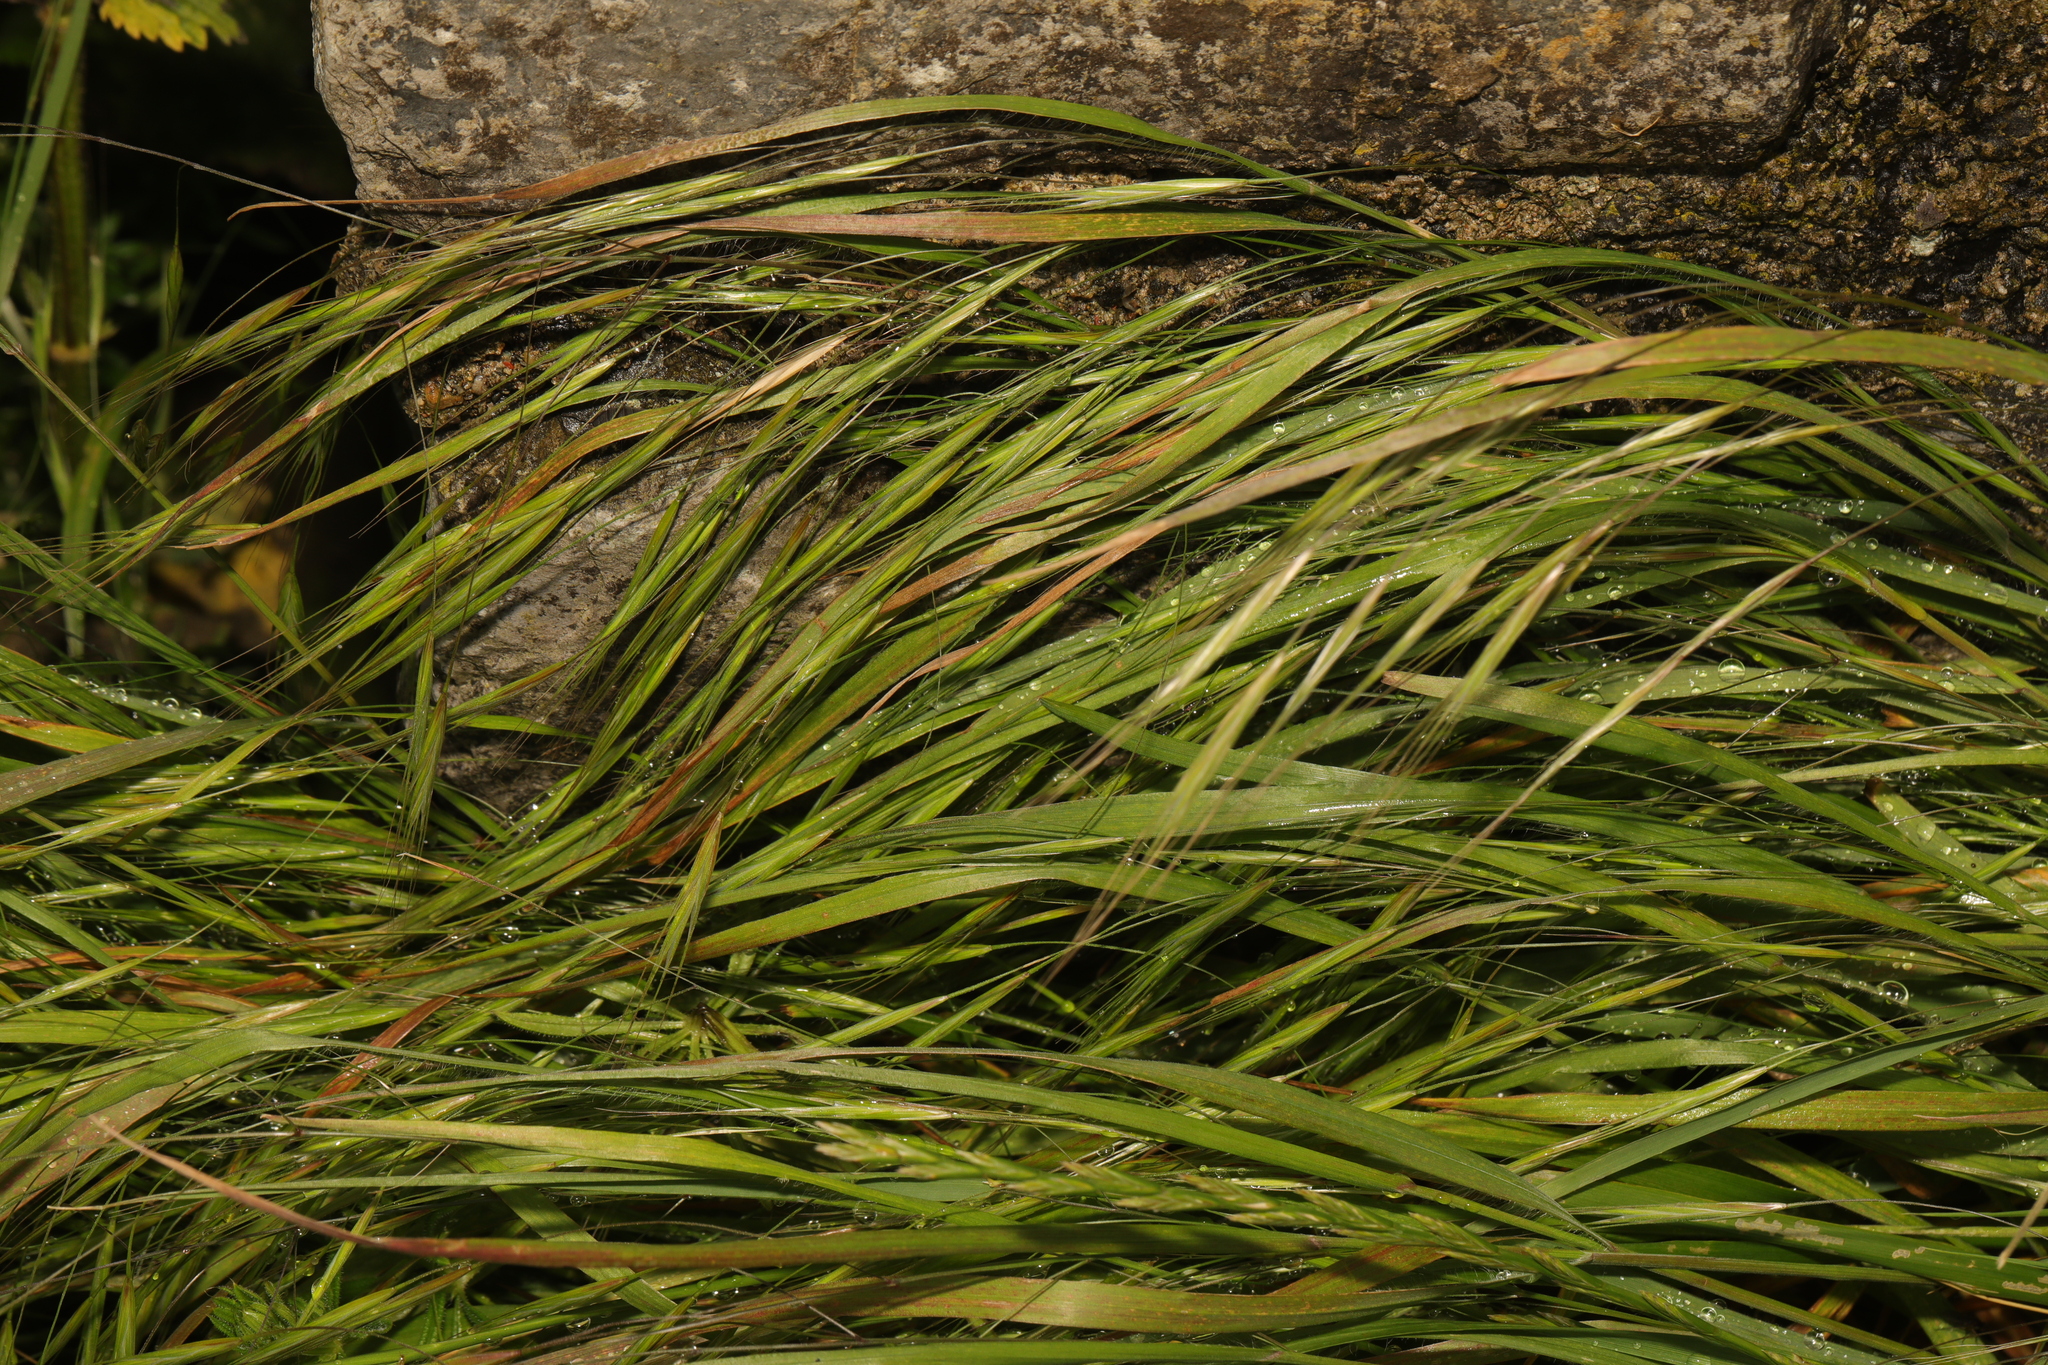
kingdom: Plantae
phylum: Tracheophyta
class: Liliopsida
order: Poales
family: Poaceae
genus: Bromus
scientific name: Bromus sterilis
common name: Poverty brome
